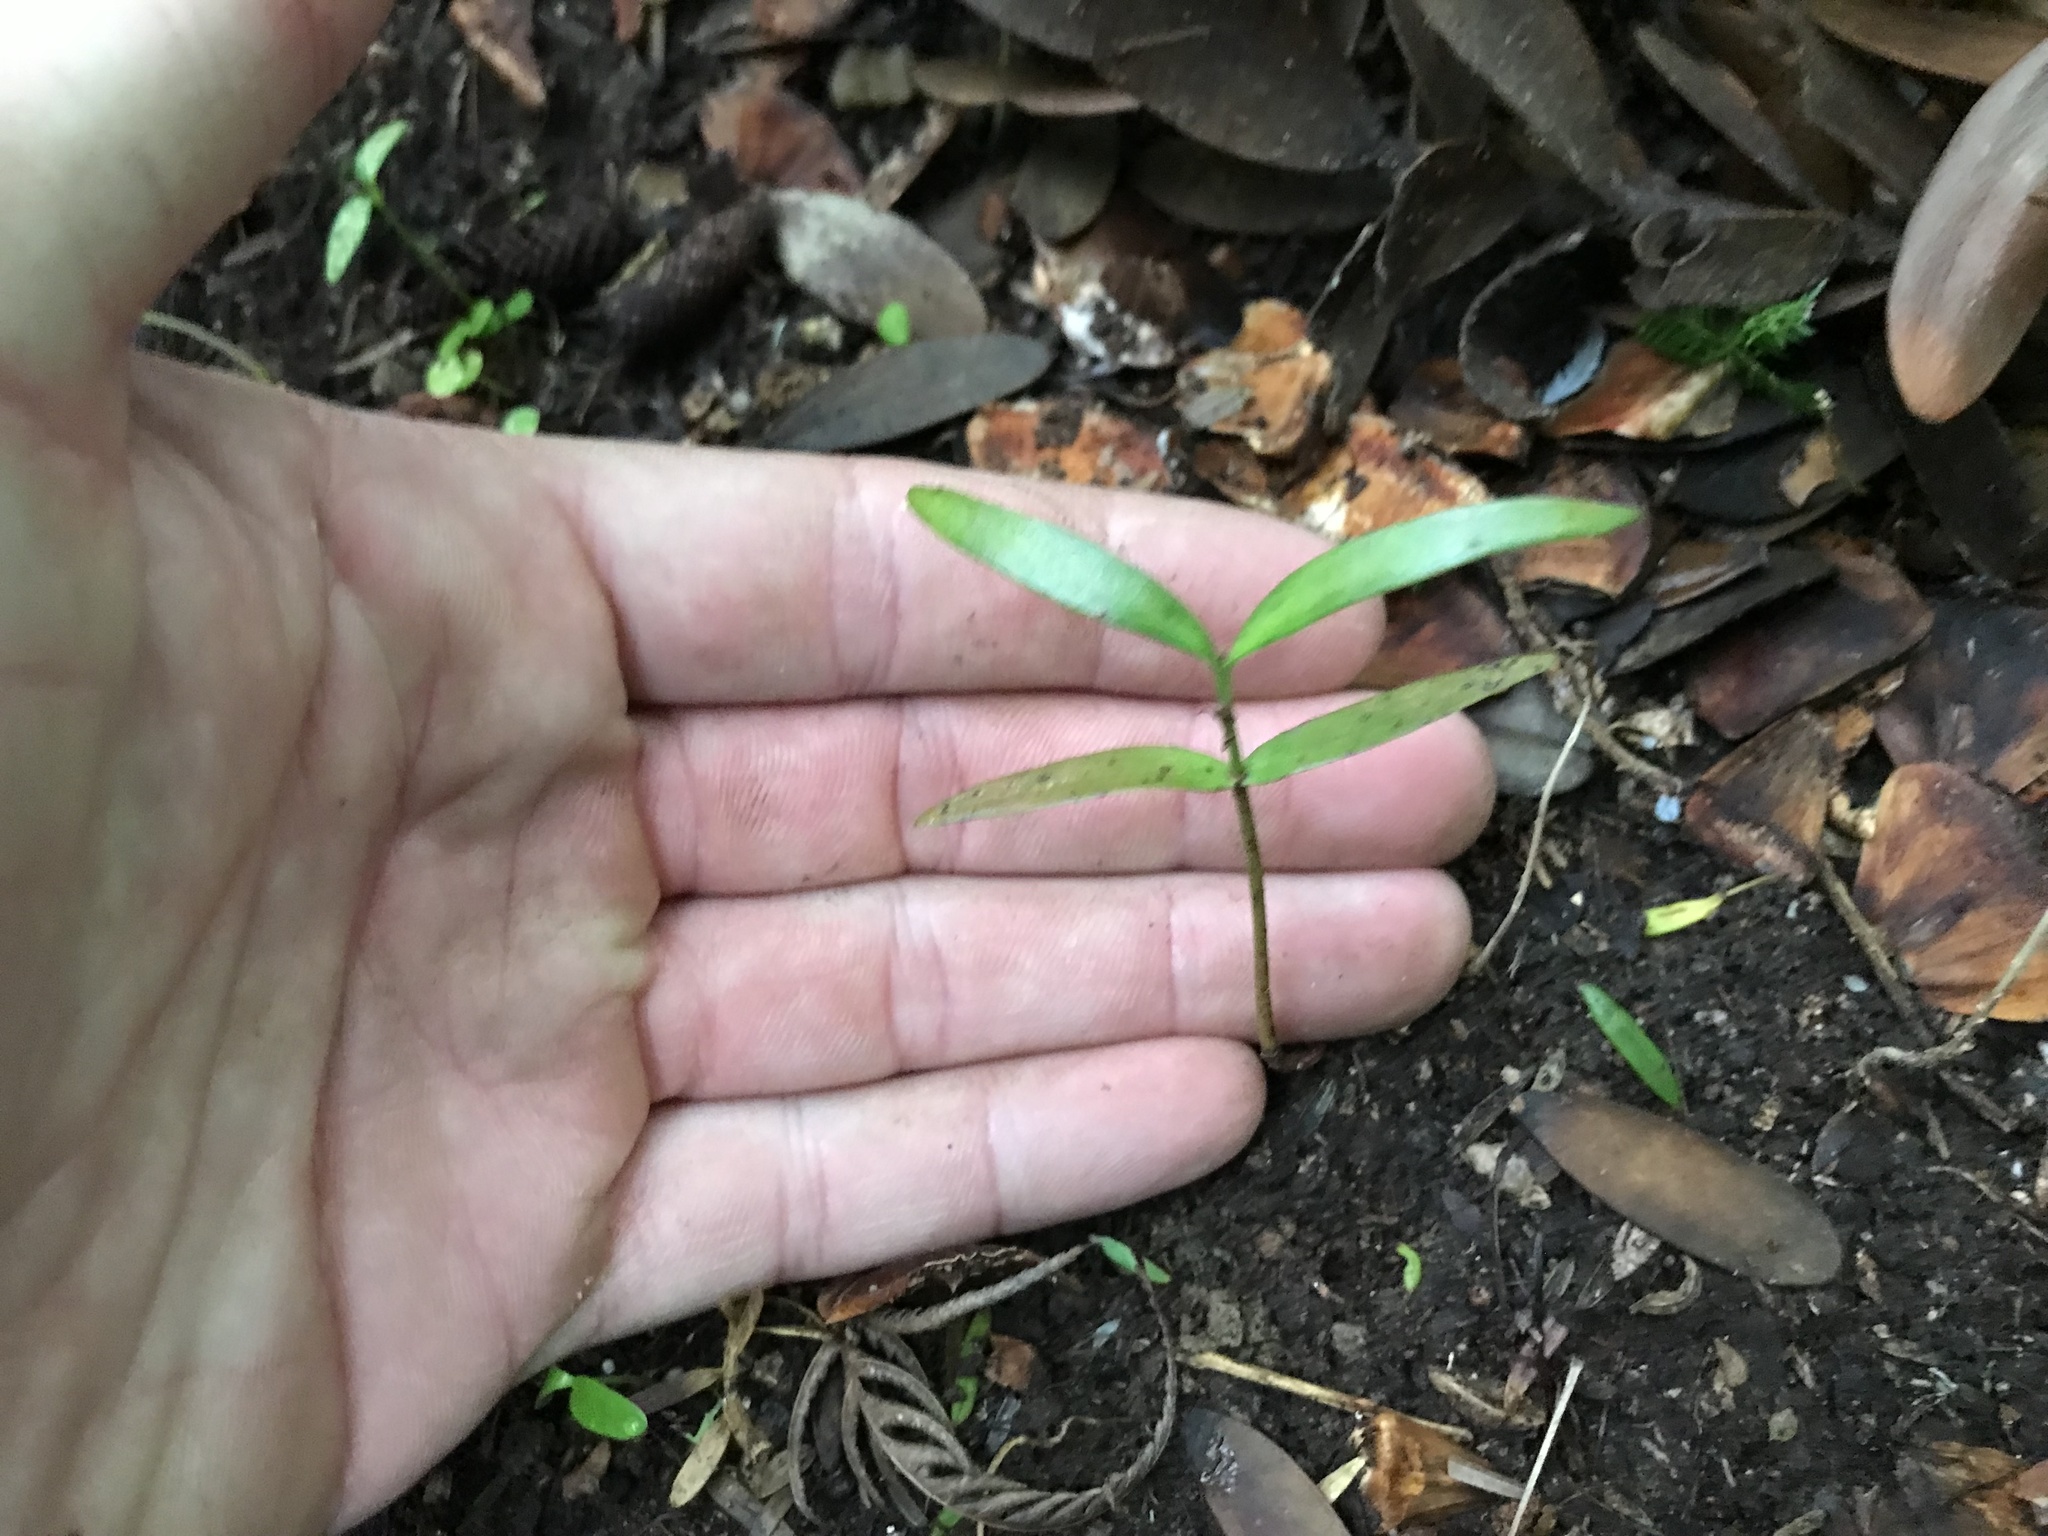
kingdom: Plantae
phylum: Tracheophyta
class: Pinopsida
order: Pinales
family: Araucariaceae
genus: Agathis
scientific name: Agathis australis
